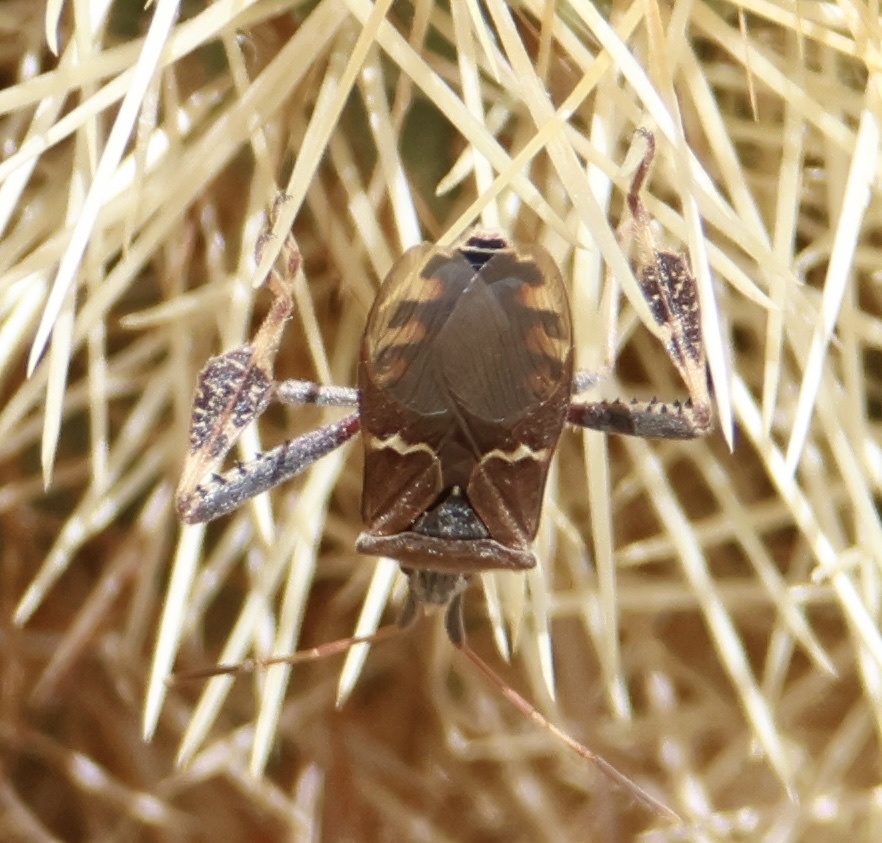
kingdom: Animalia
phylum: Arthropoda
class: Insecta
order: Hemiptera
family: Coreidae
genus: Leptoglossus
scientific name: Leptoglossus clypealis
